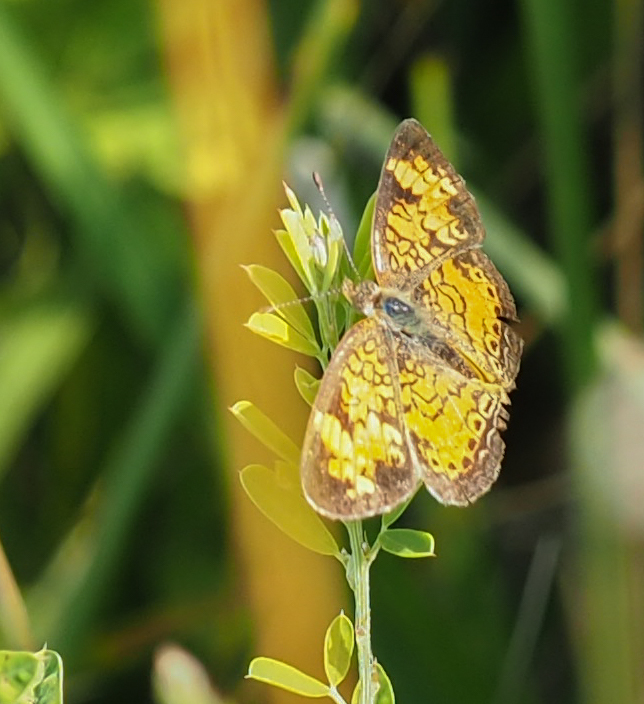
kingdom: Animalia
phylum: Arthropoda
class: Insecta
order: Lepidoptera
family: Nymphalidae
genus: Phyciodes
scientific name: Phyciodes tharos
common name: Pearl crescent
